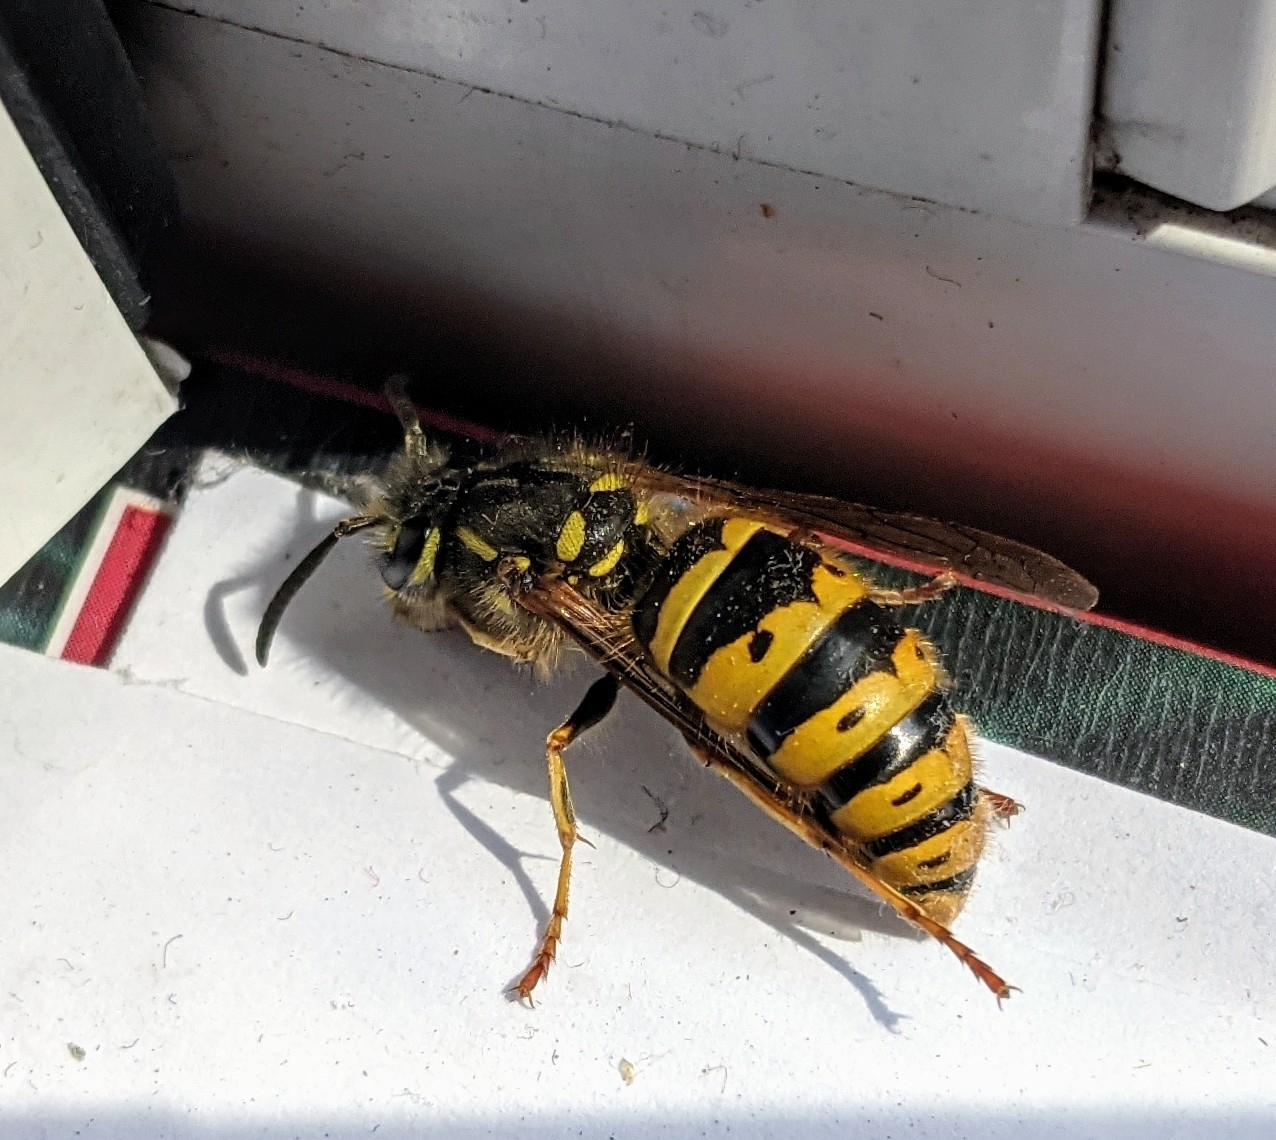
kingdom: Animalia
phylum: Arthropoda
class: Insecta
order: Hymenoptera
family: Vespidae
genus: Vespula
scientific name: Vespula vulgaris
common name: Common wasp
